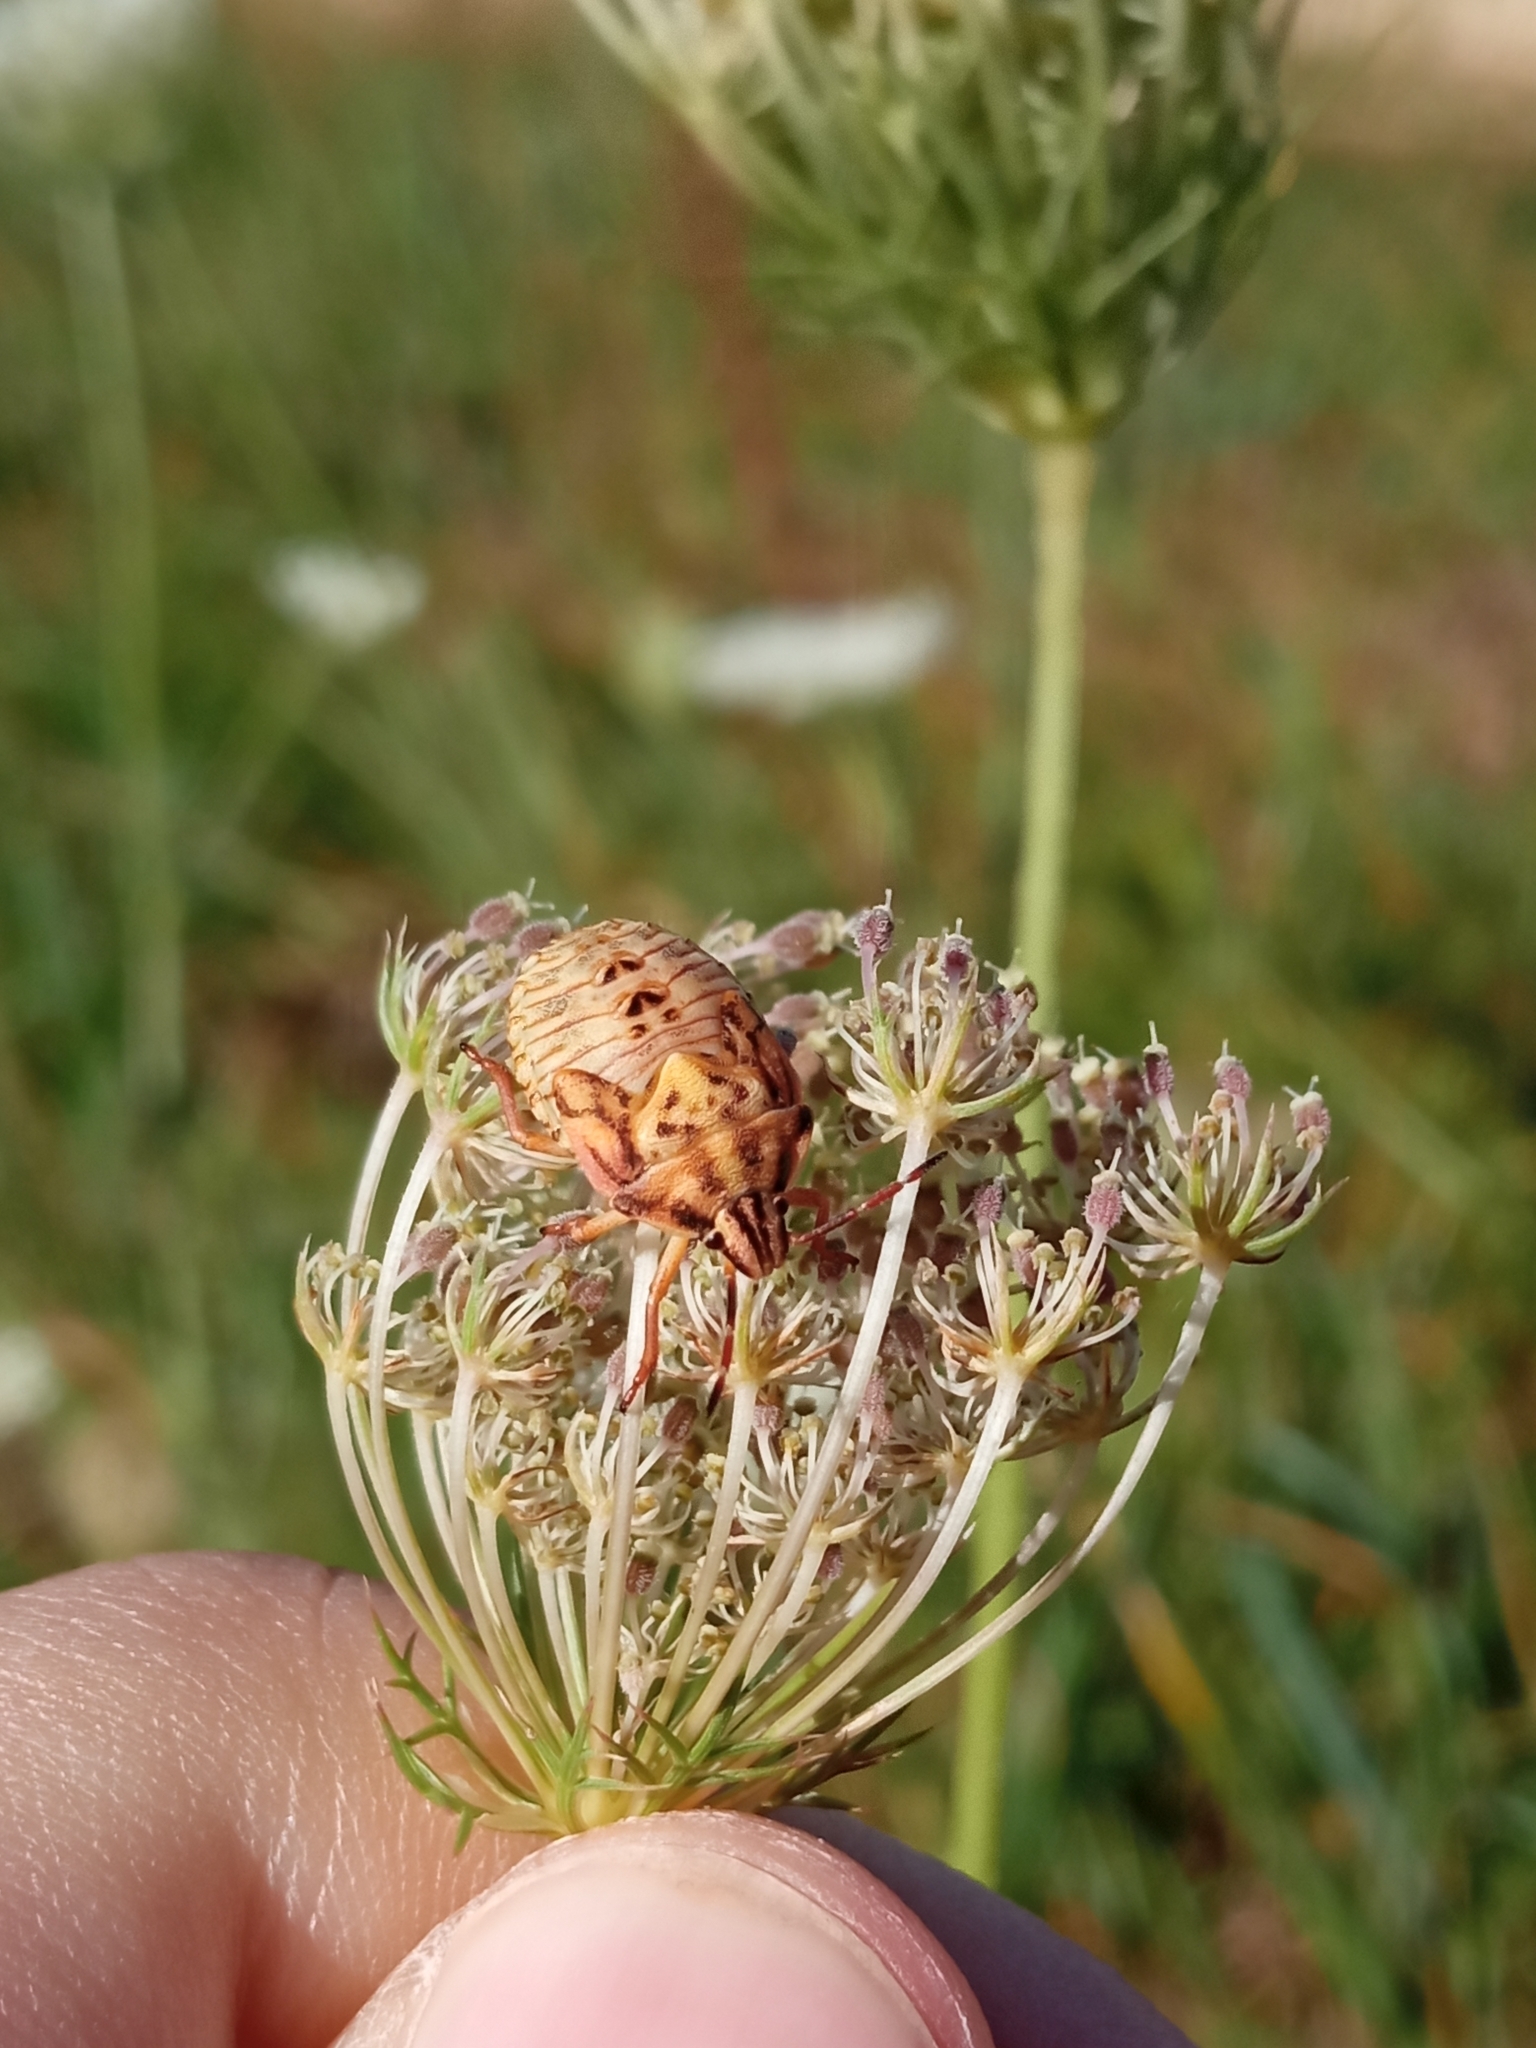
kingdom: Animalia
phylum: Arthropoda
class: Insecta
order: Hemiptera
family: Pentatomidae
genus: Carpocoris
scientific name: Carpocoris purpureipennis
